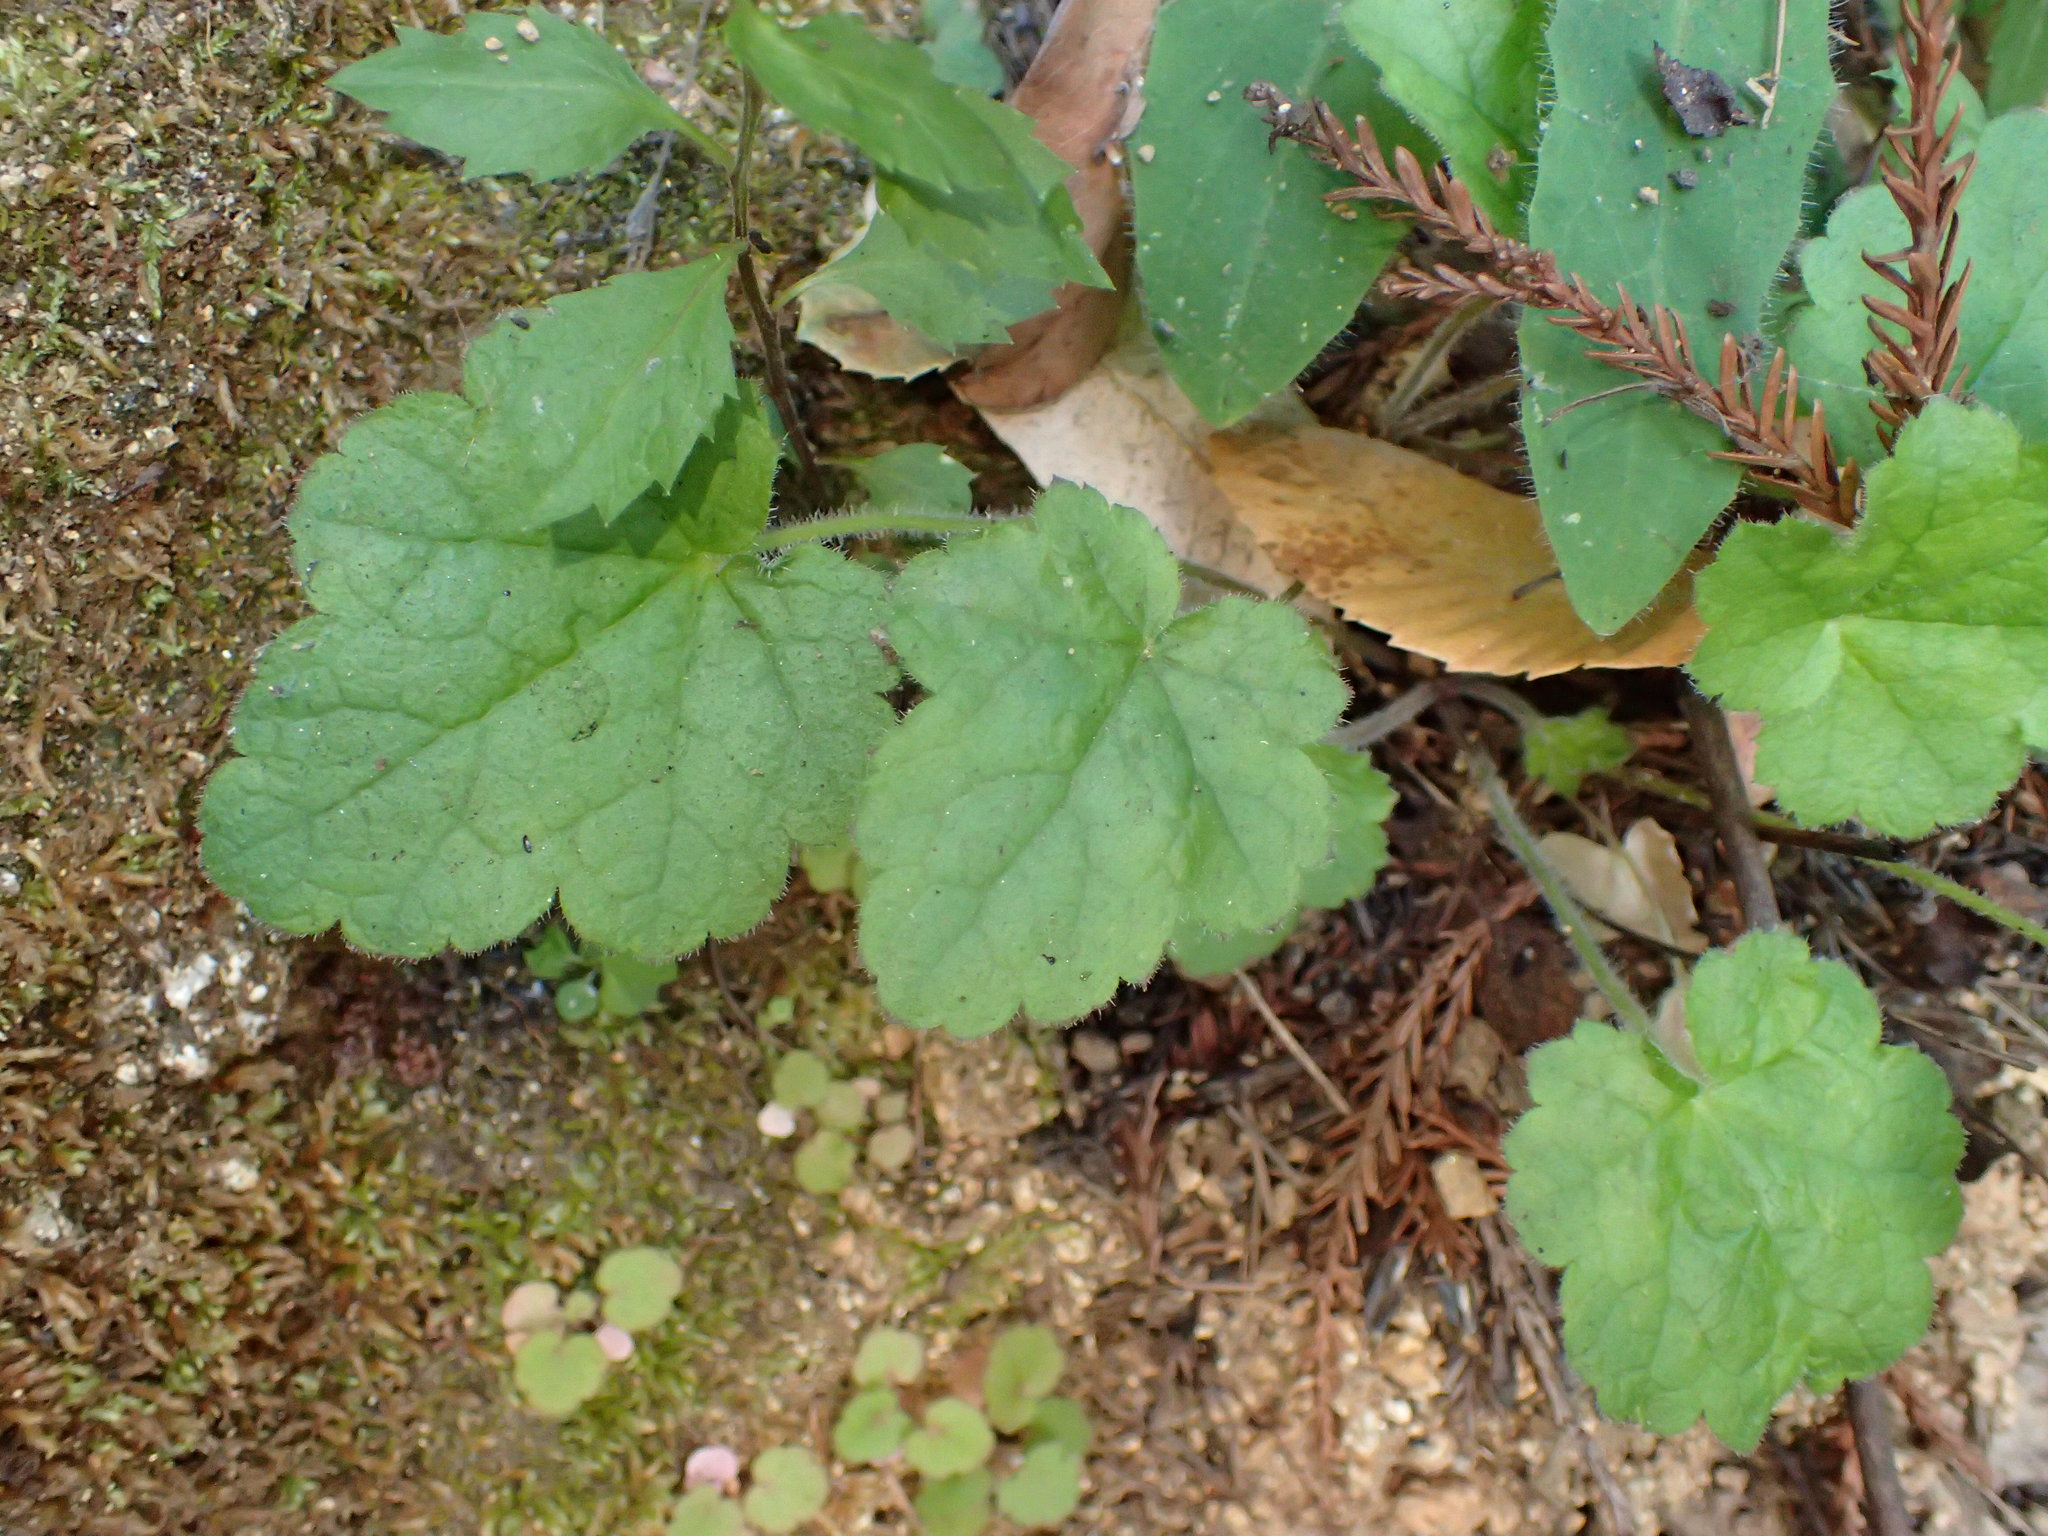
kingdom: Plantae
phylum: Tracheophyta
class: Magnoliopsida
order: Saxifragales
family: Saxifragaceae
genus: Heuchera
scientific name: Heuchera micrantha
